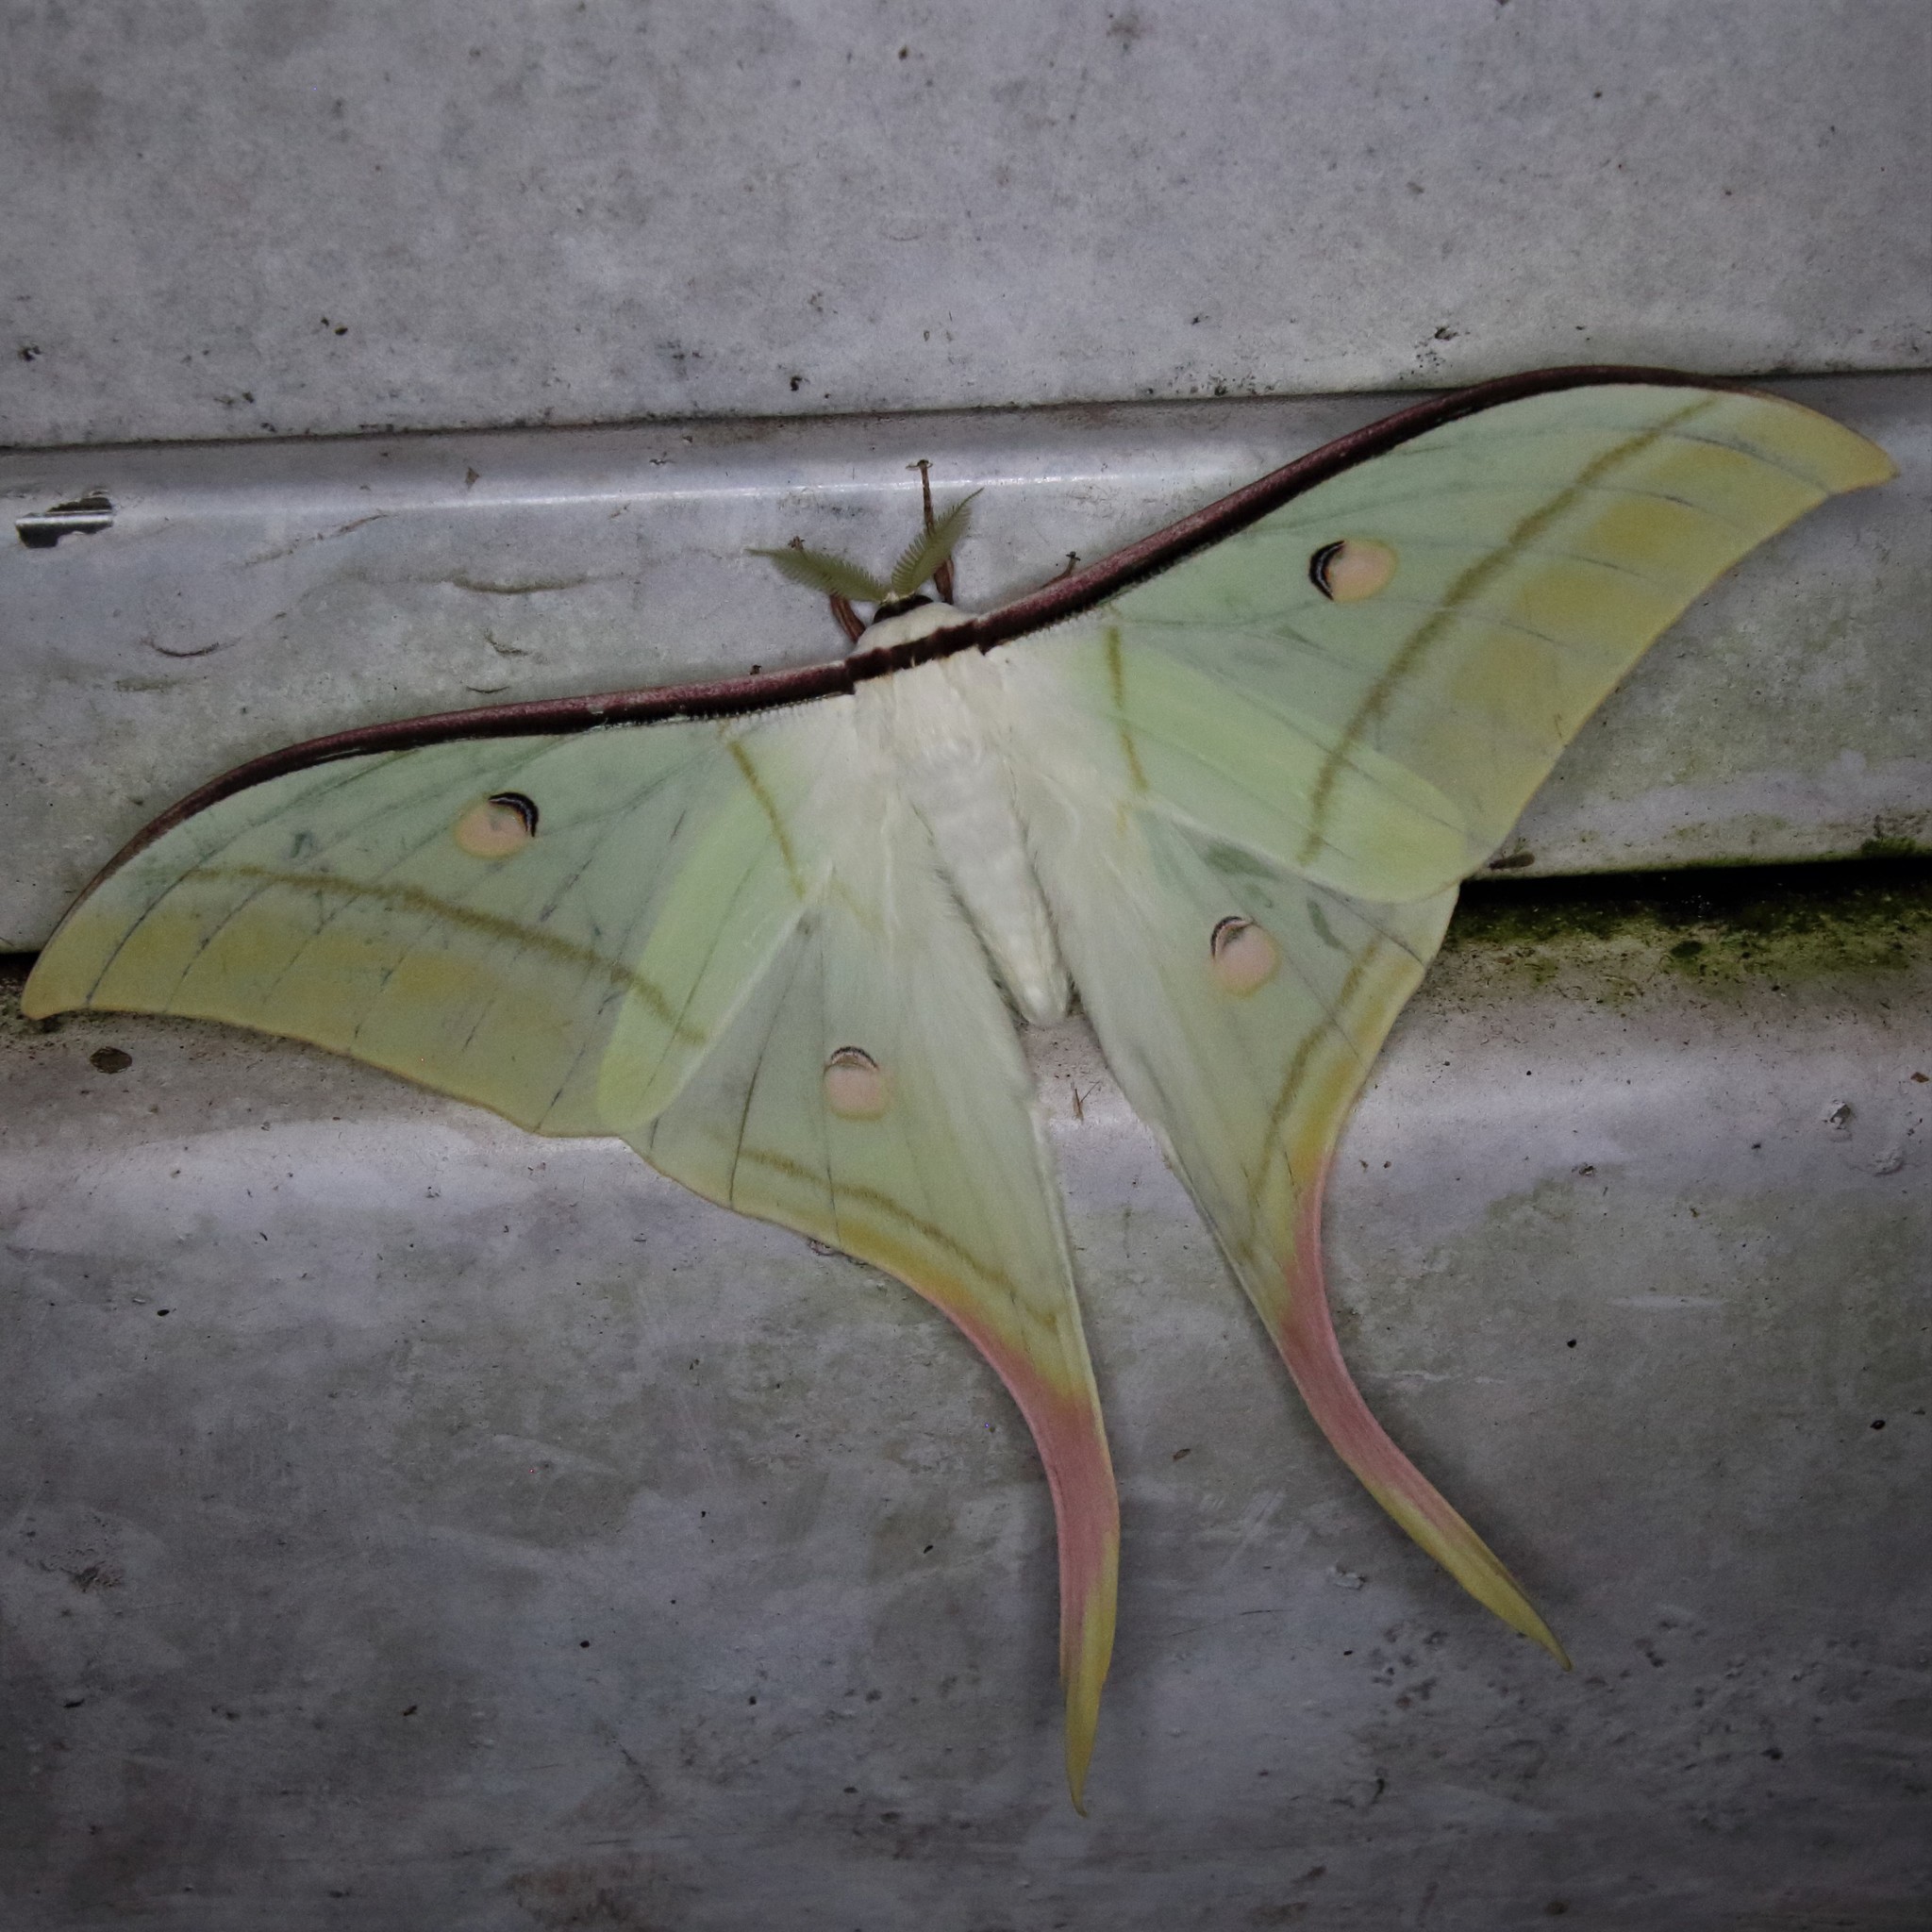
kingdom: Animalia
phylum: Arthropoda
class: Insecta
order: Lepidoptera
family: Saturniidae
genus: Actias
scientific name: Actias selene
